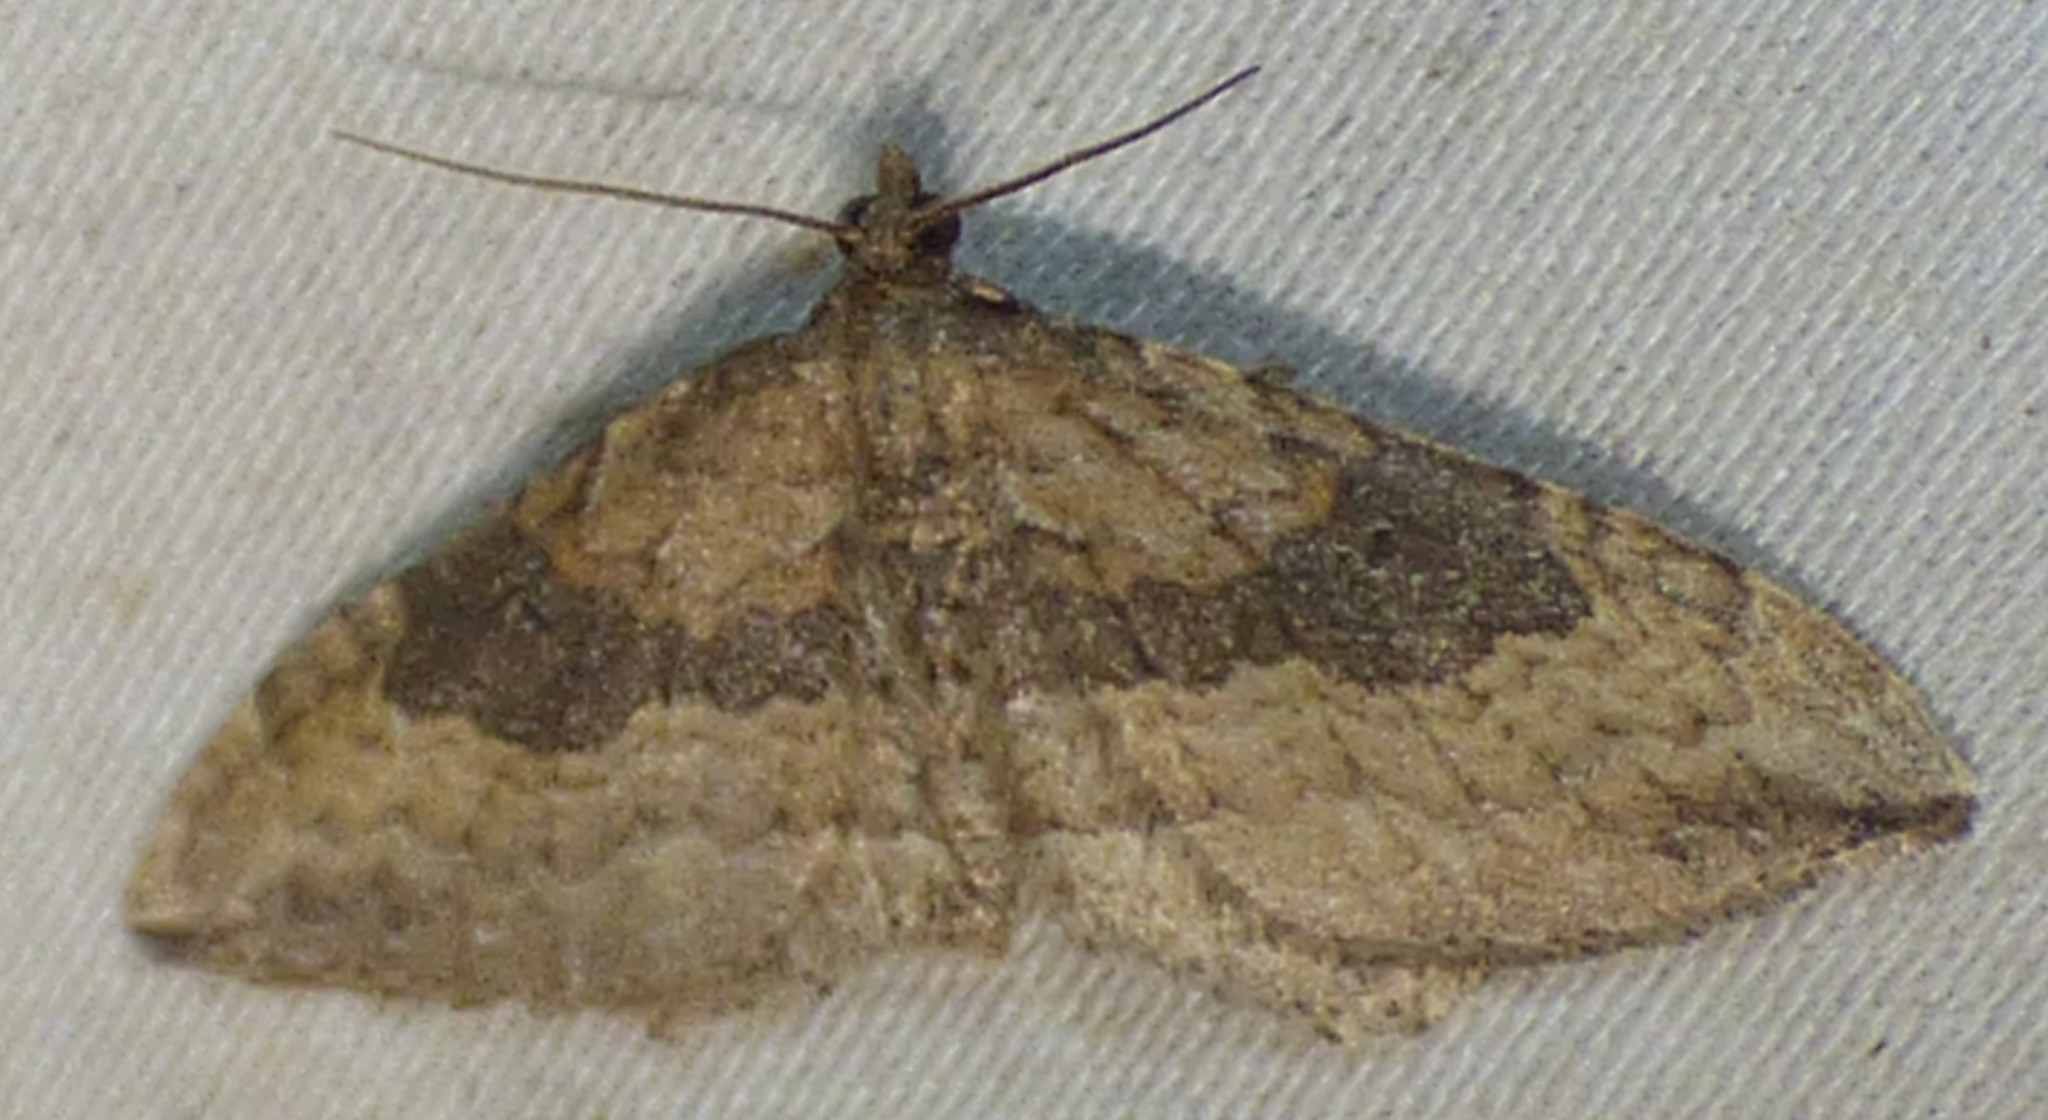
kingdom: Animalia
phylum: Arthropoda
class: Insecta
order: Lepidoptera
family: Geometridae
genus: Orthonama
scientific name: Orthonama obstipata
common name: The gem
